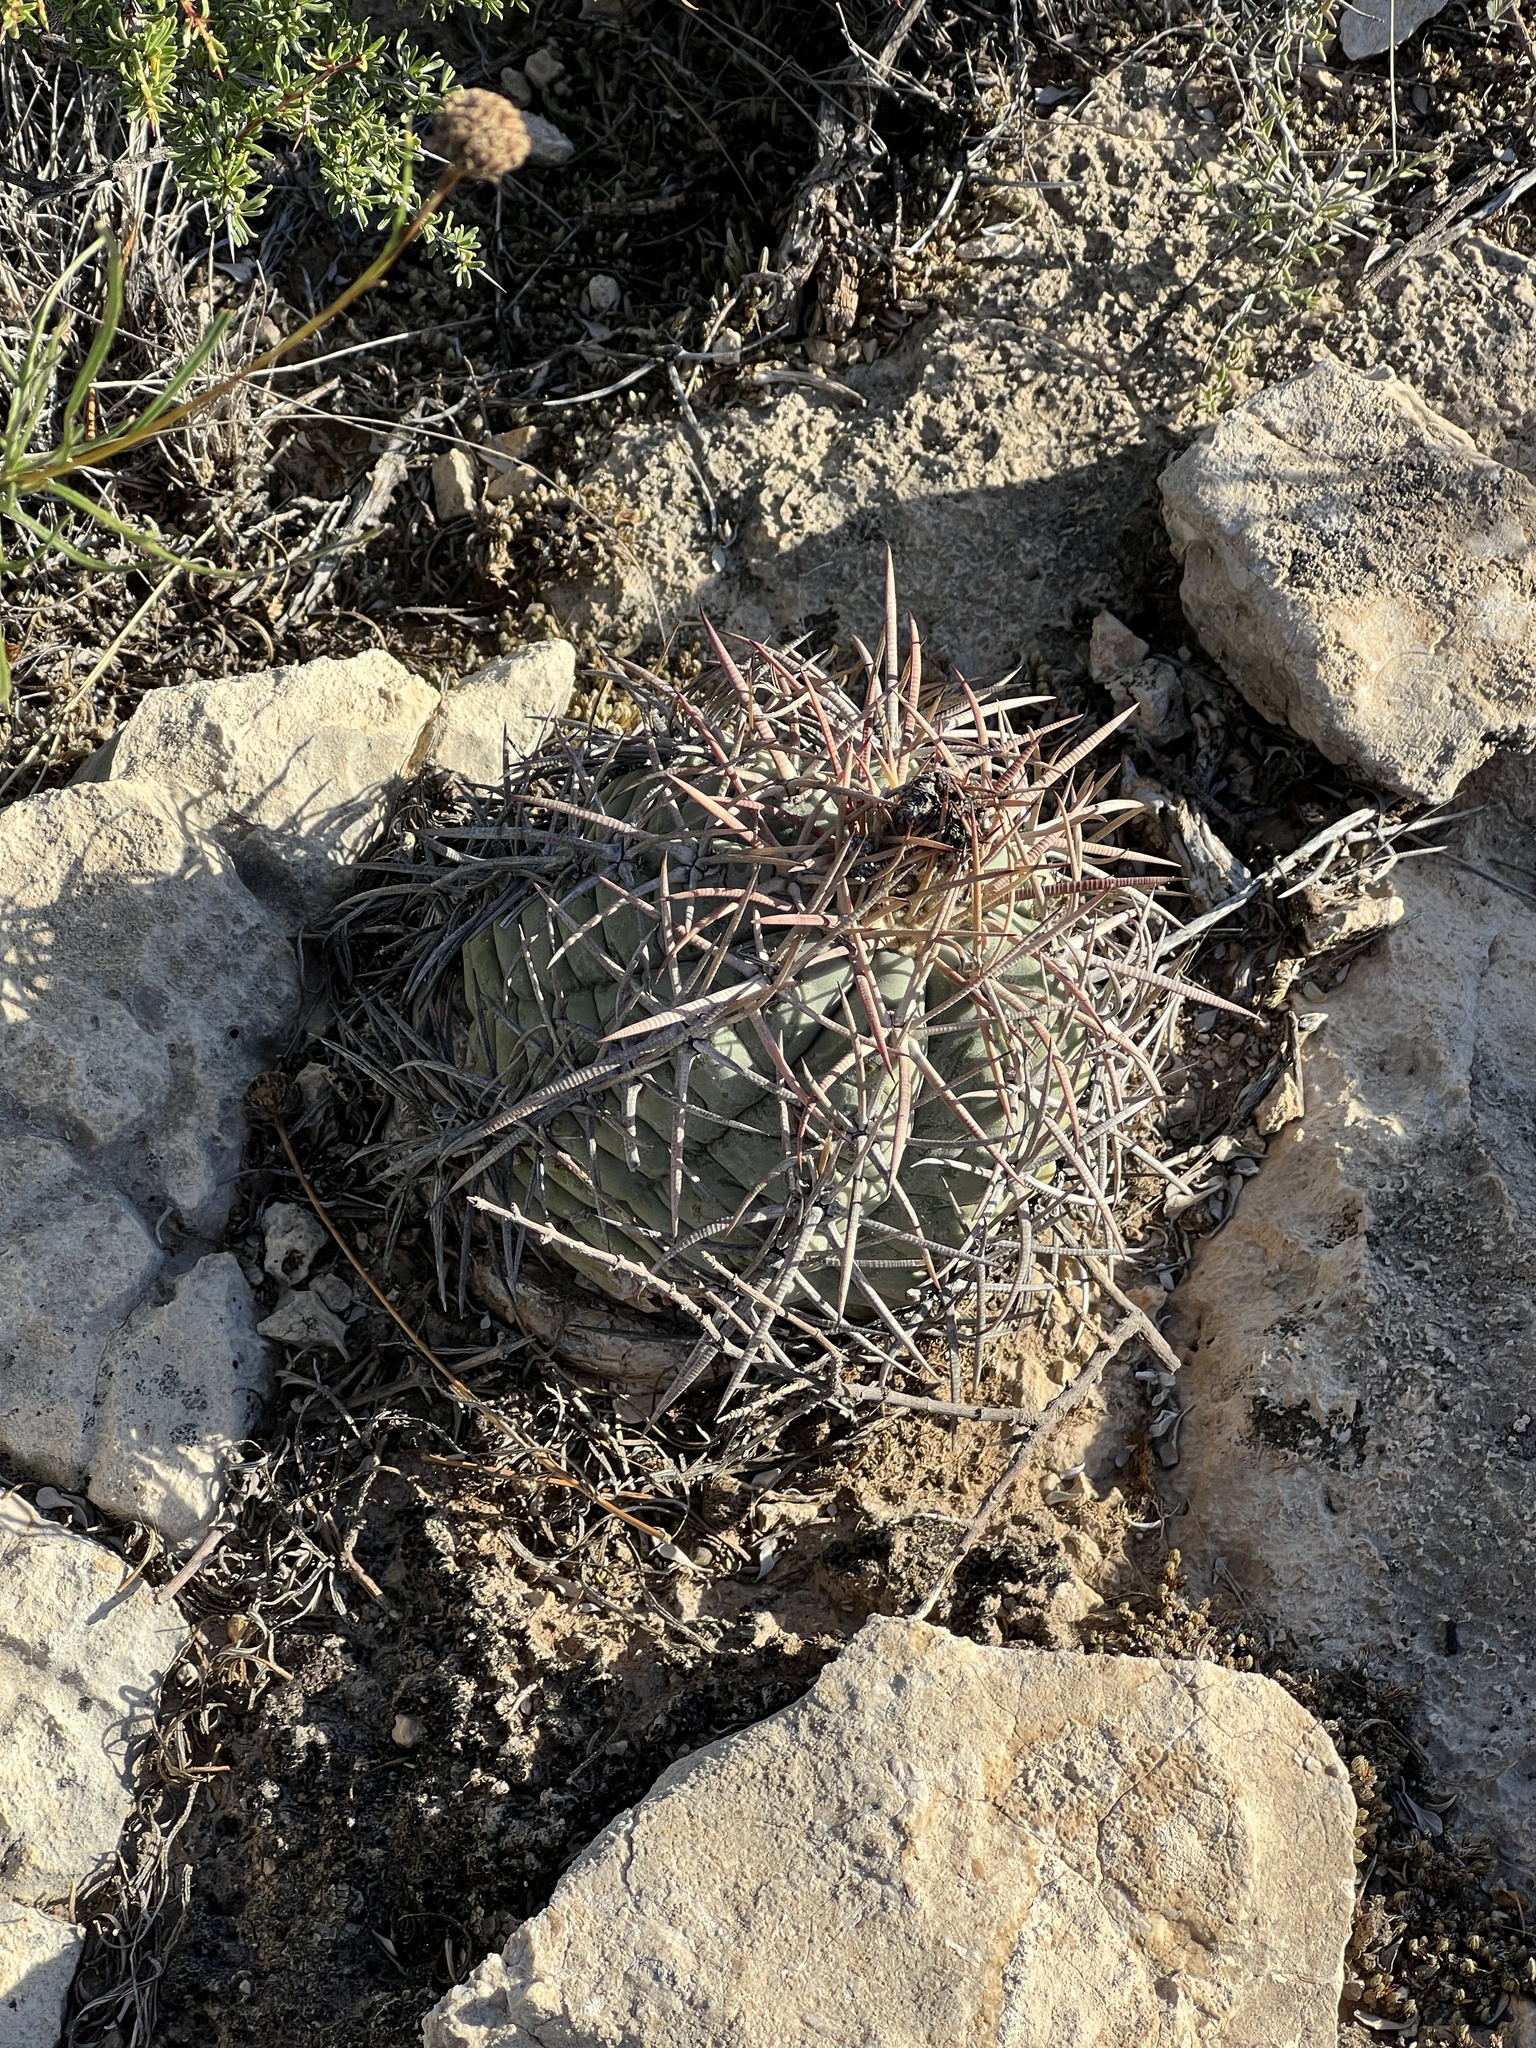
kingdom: Plantae
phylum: Tracheophyta
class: Magnoliopsida
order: Caryophyllales
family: Cactaceae
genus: Echinocactus
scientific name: Echinocactus horizonthalonius
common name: Devilshead
